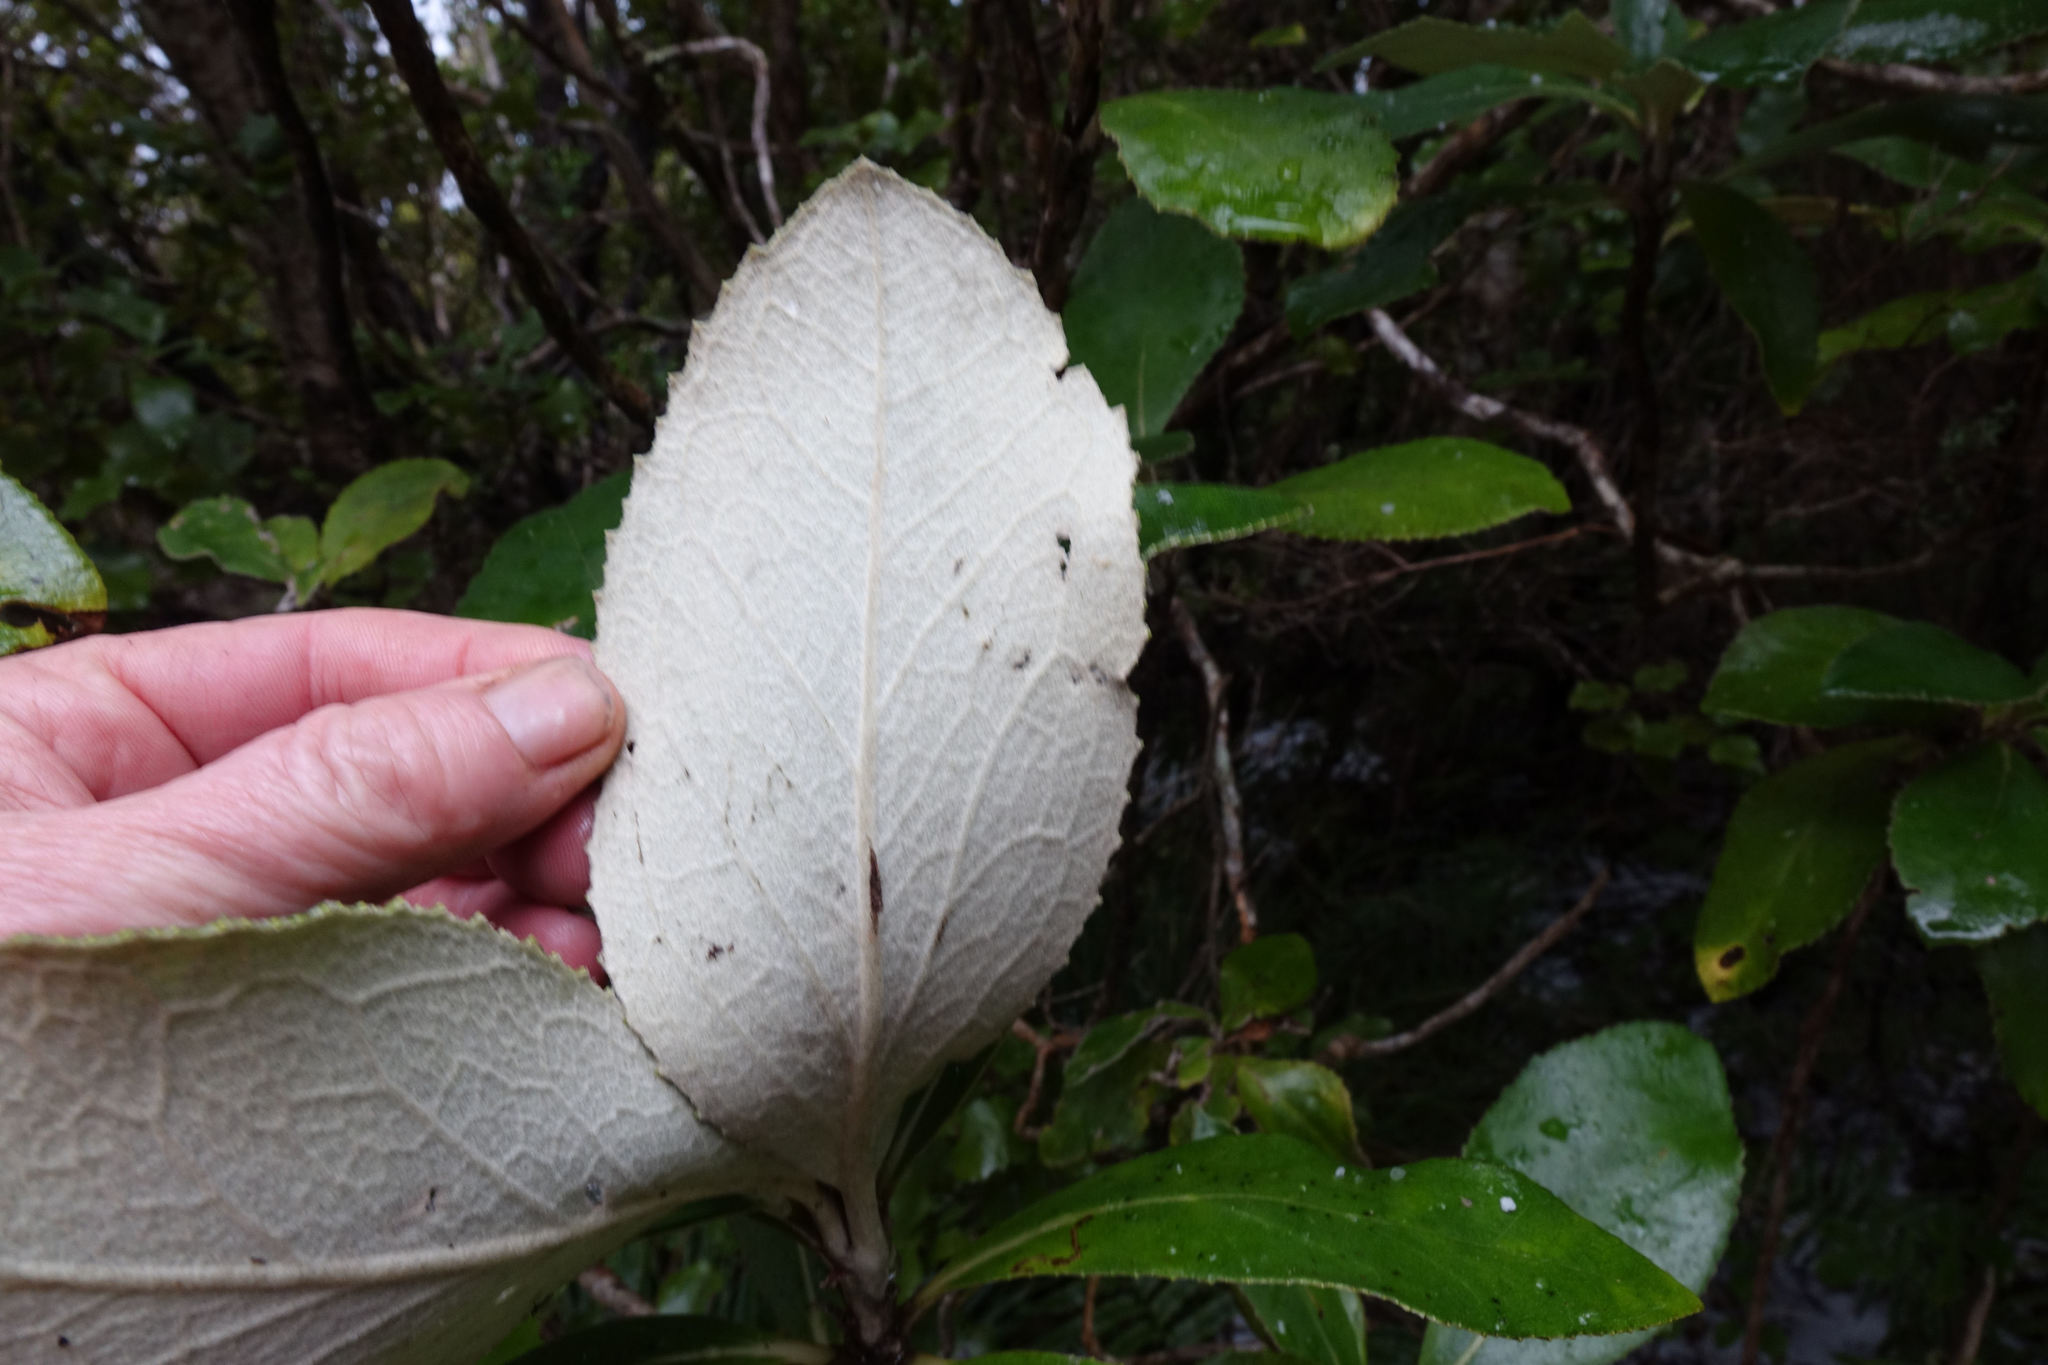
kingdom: Plantae
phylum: Tracheophyta
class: Magnoliopsida
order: Asterales
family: Asteraceae
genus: Macrolearia
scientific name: Macrolearia colensoi
